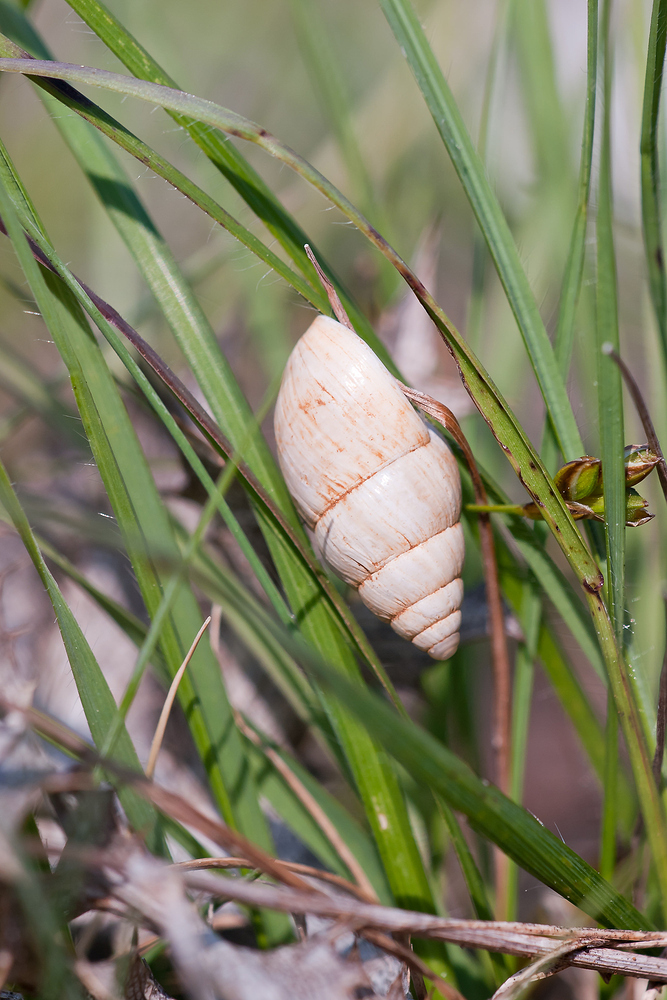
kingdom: Animalia
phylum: Mollusca
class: Gastropoda
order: Stylommatophora
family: Enidae
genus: Zebrina
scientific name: Zebrina detrita
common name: Large bulin
